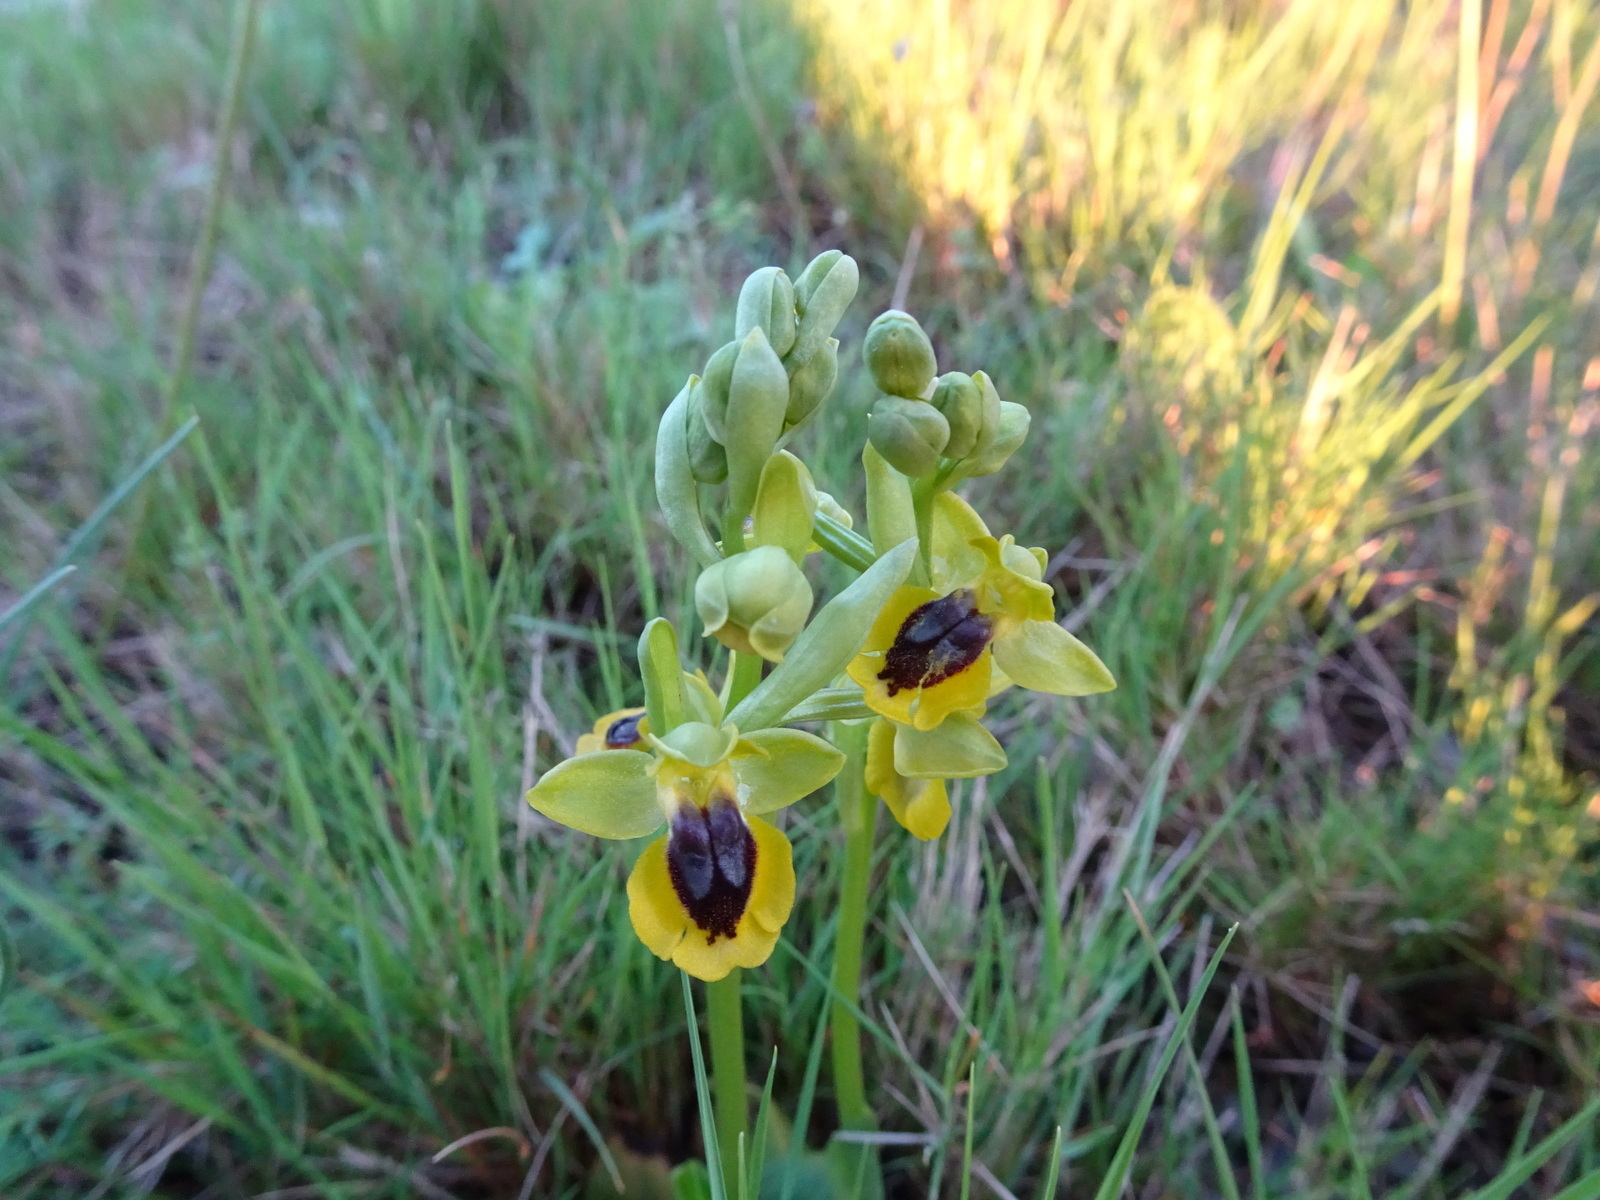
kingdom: Plantae
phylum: Tracheophyta
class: Liliopsida
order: Asparagales
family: Orchidaceae
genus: Ophrys
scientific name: Ophrys lutea
